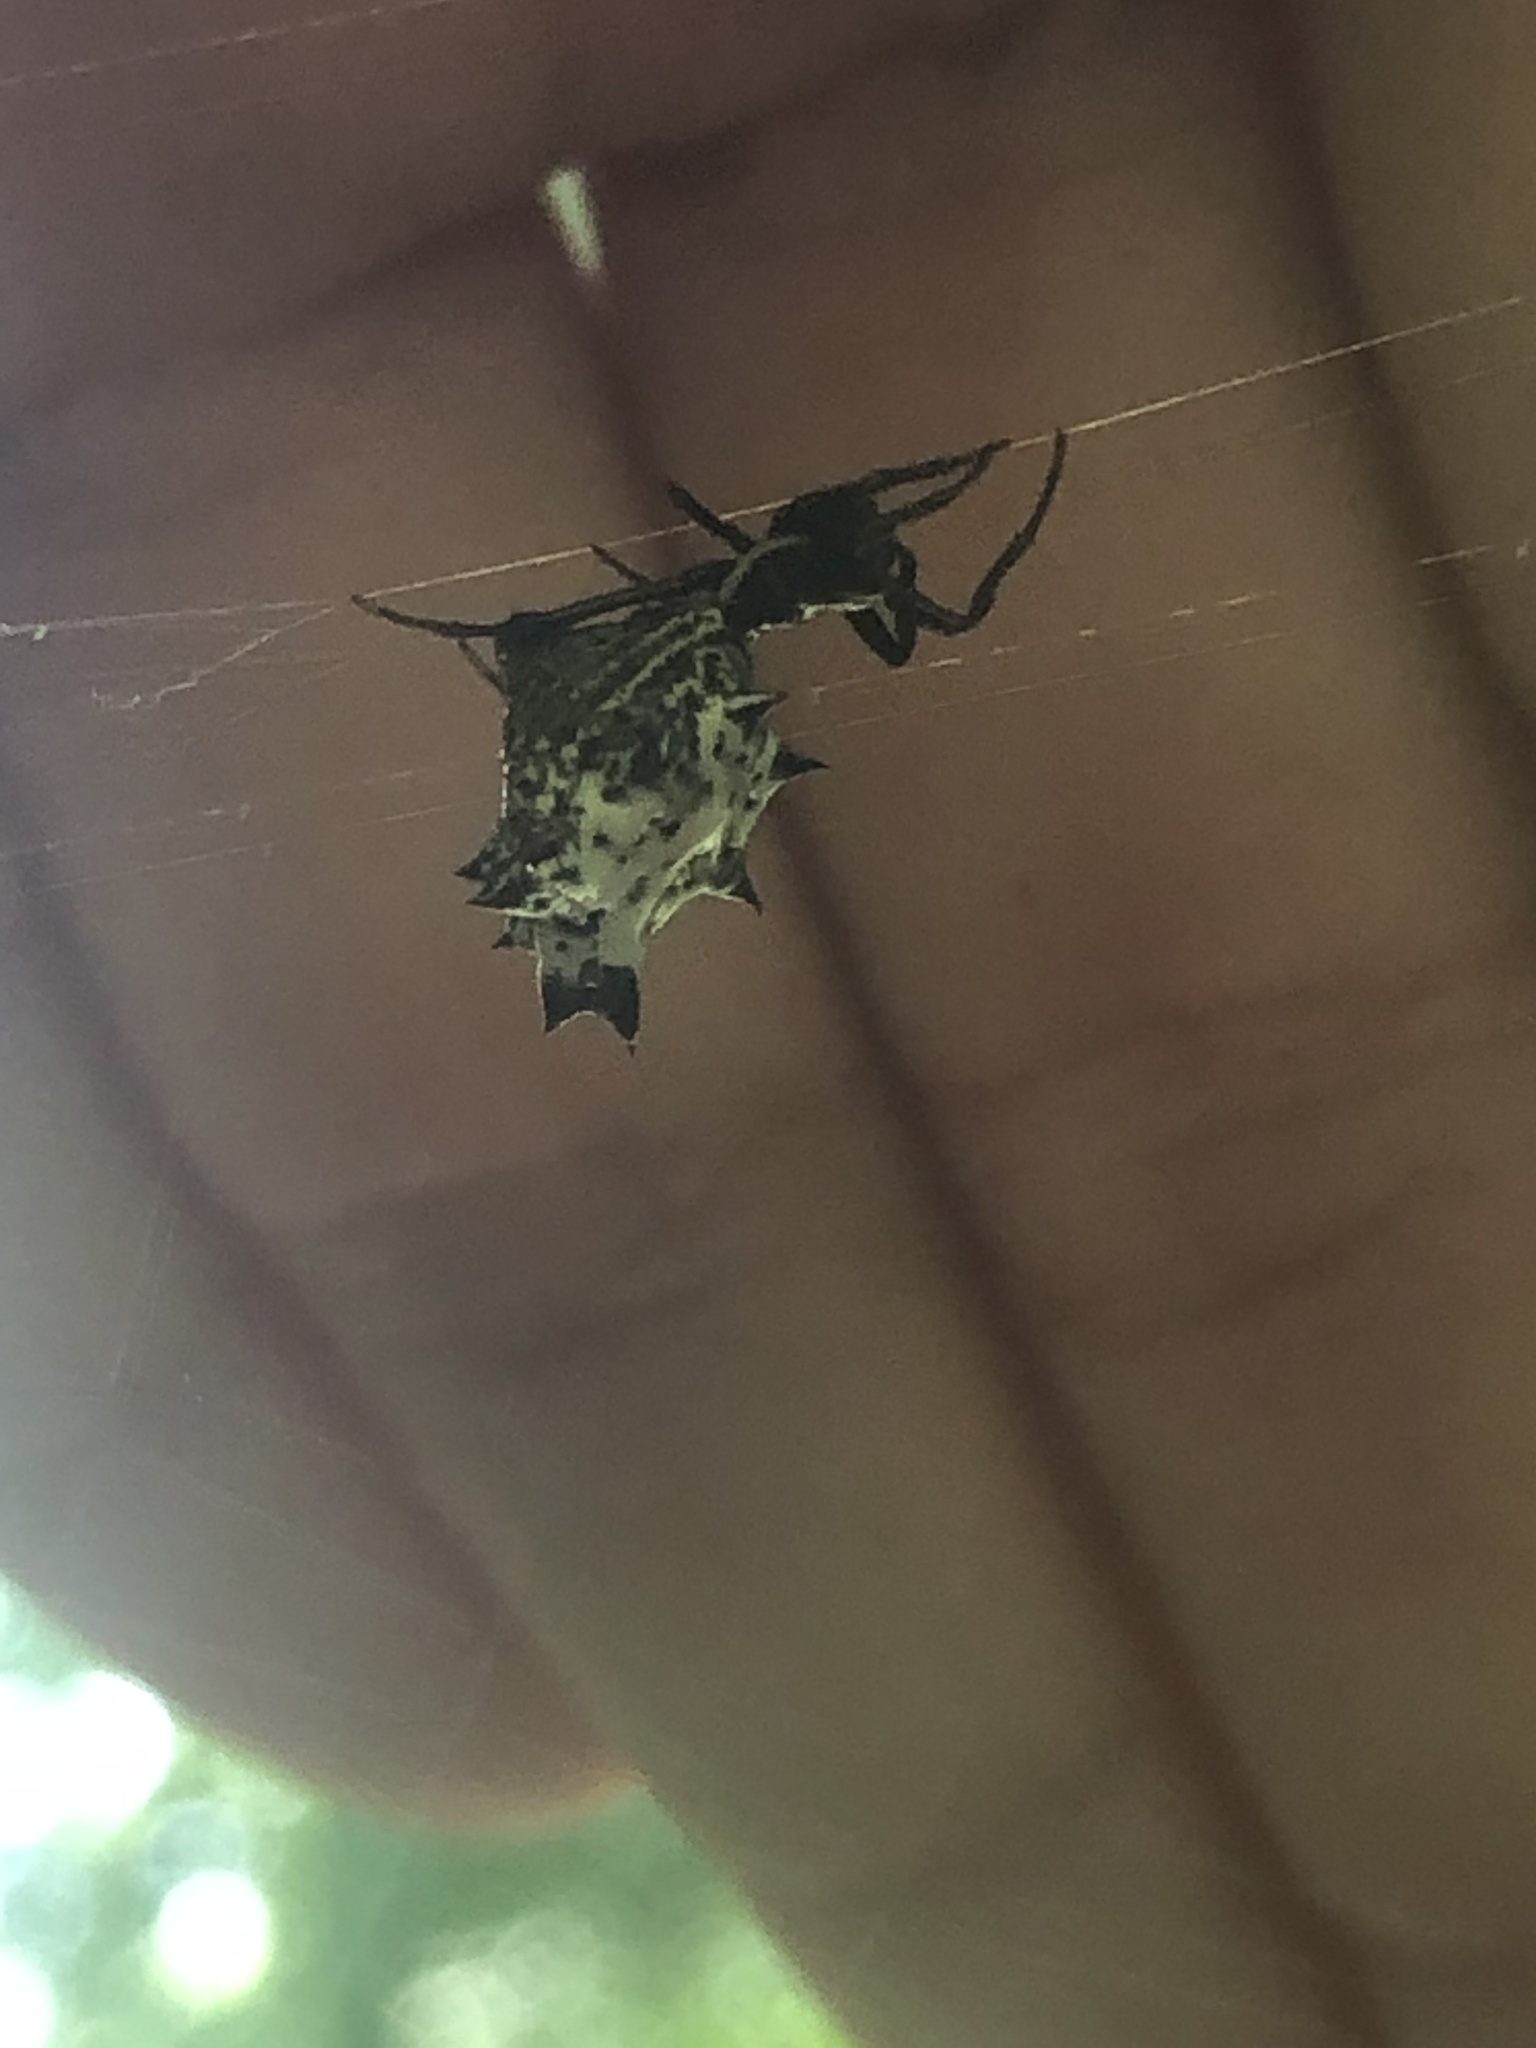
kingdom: Animalia
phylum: Arthropoda
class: Arachnida
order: Araneae
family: Araneidae
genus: Micrathena
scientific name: Micrathena gracilis
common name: Orb weavers
